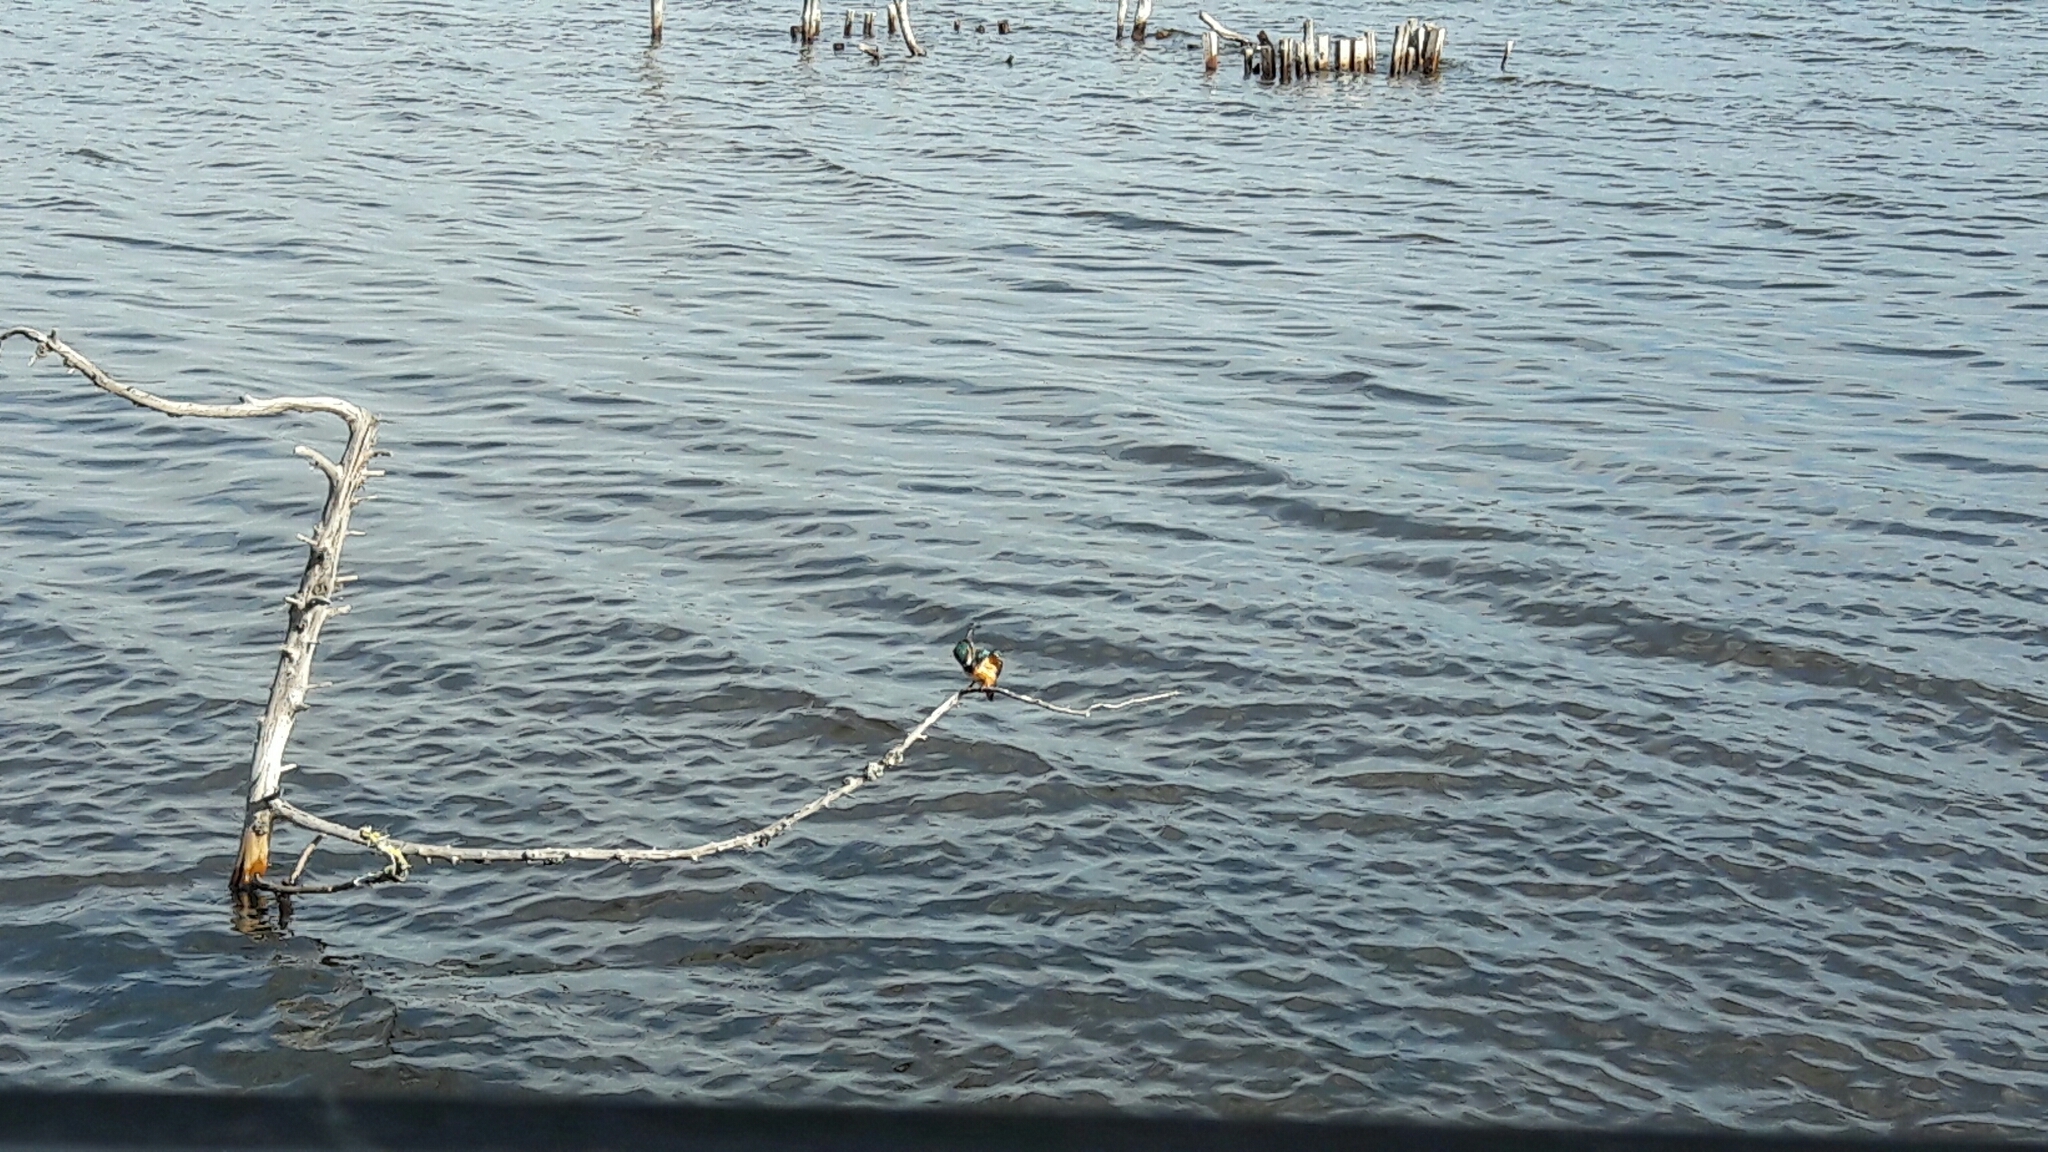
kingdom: Animalia
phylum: Chordata
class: Aves
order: Coraciiformes
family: Alcedinidae
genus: Alcedo
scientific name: Alcedo atthis
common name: Common kingfisher
